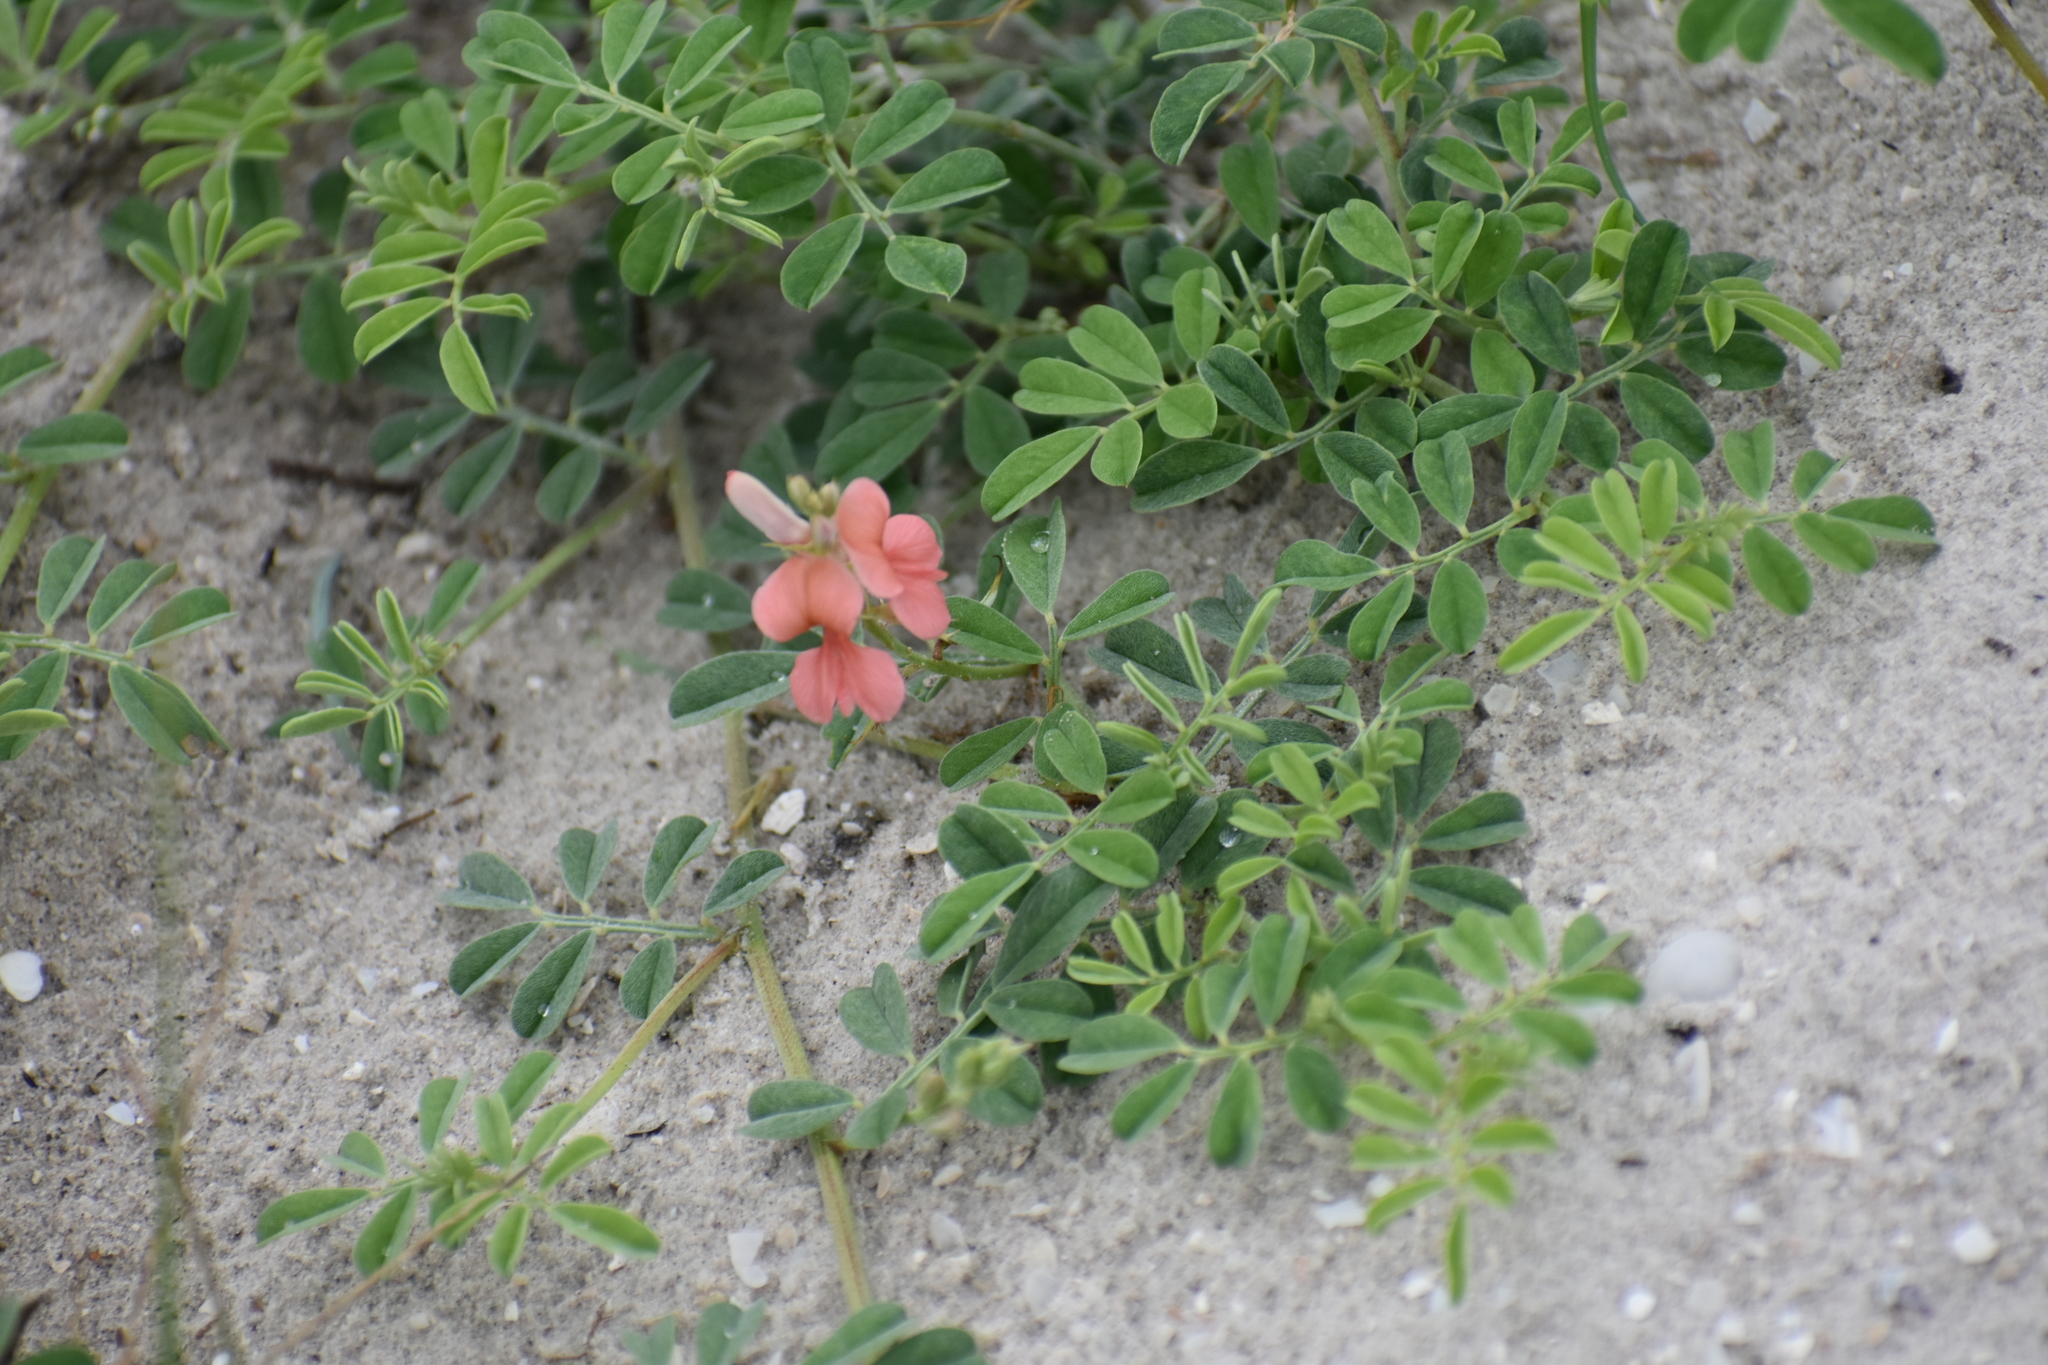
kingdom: Plantae
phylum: Tracheophyta
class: Magnoliopsida
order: Fabales
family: Fabaceae
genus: Indigofera
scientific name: Indigofera miniata
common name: Coast indigo
